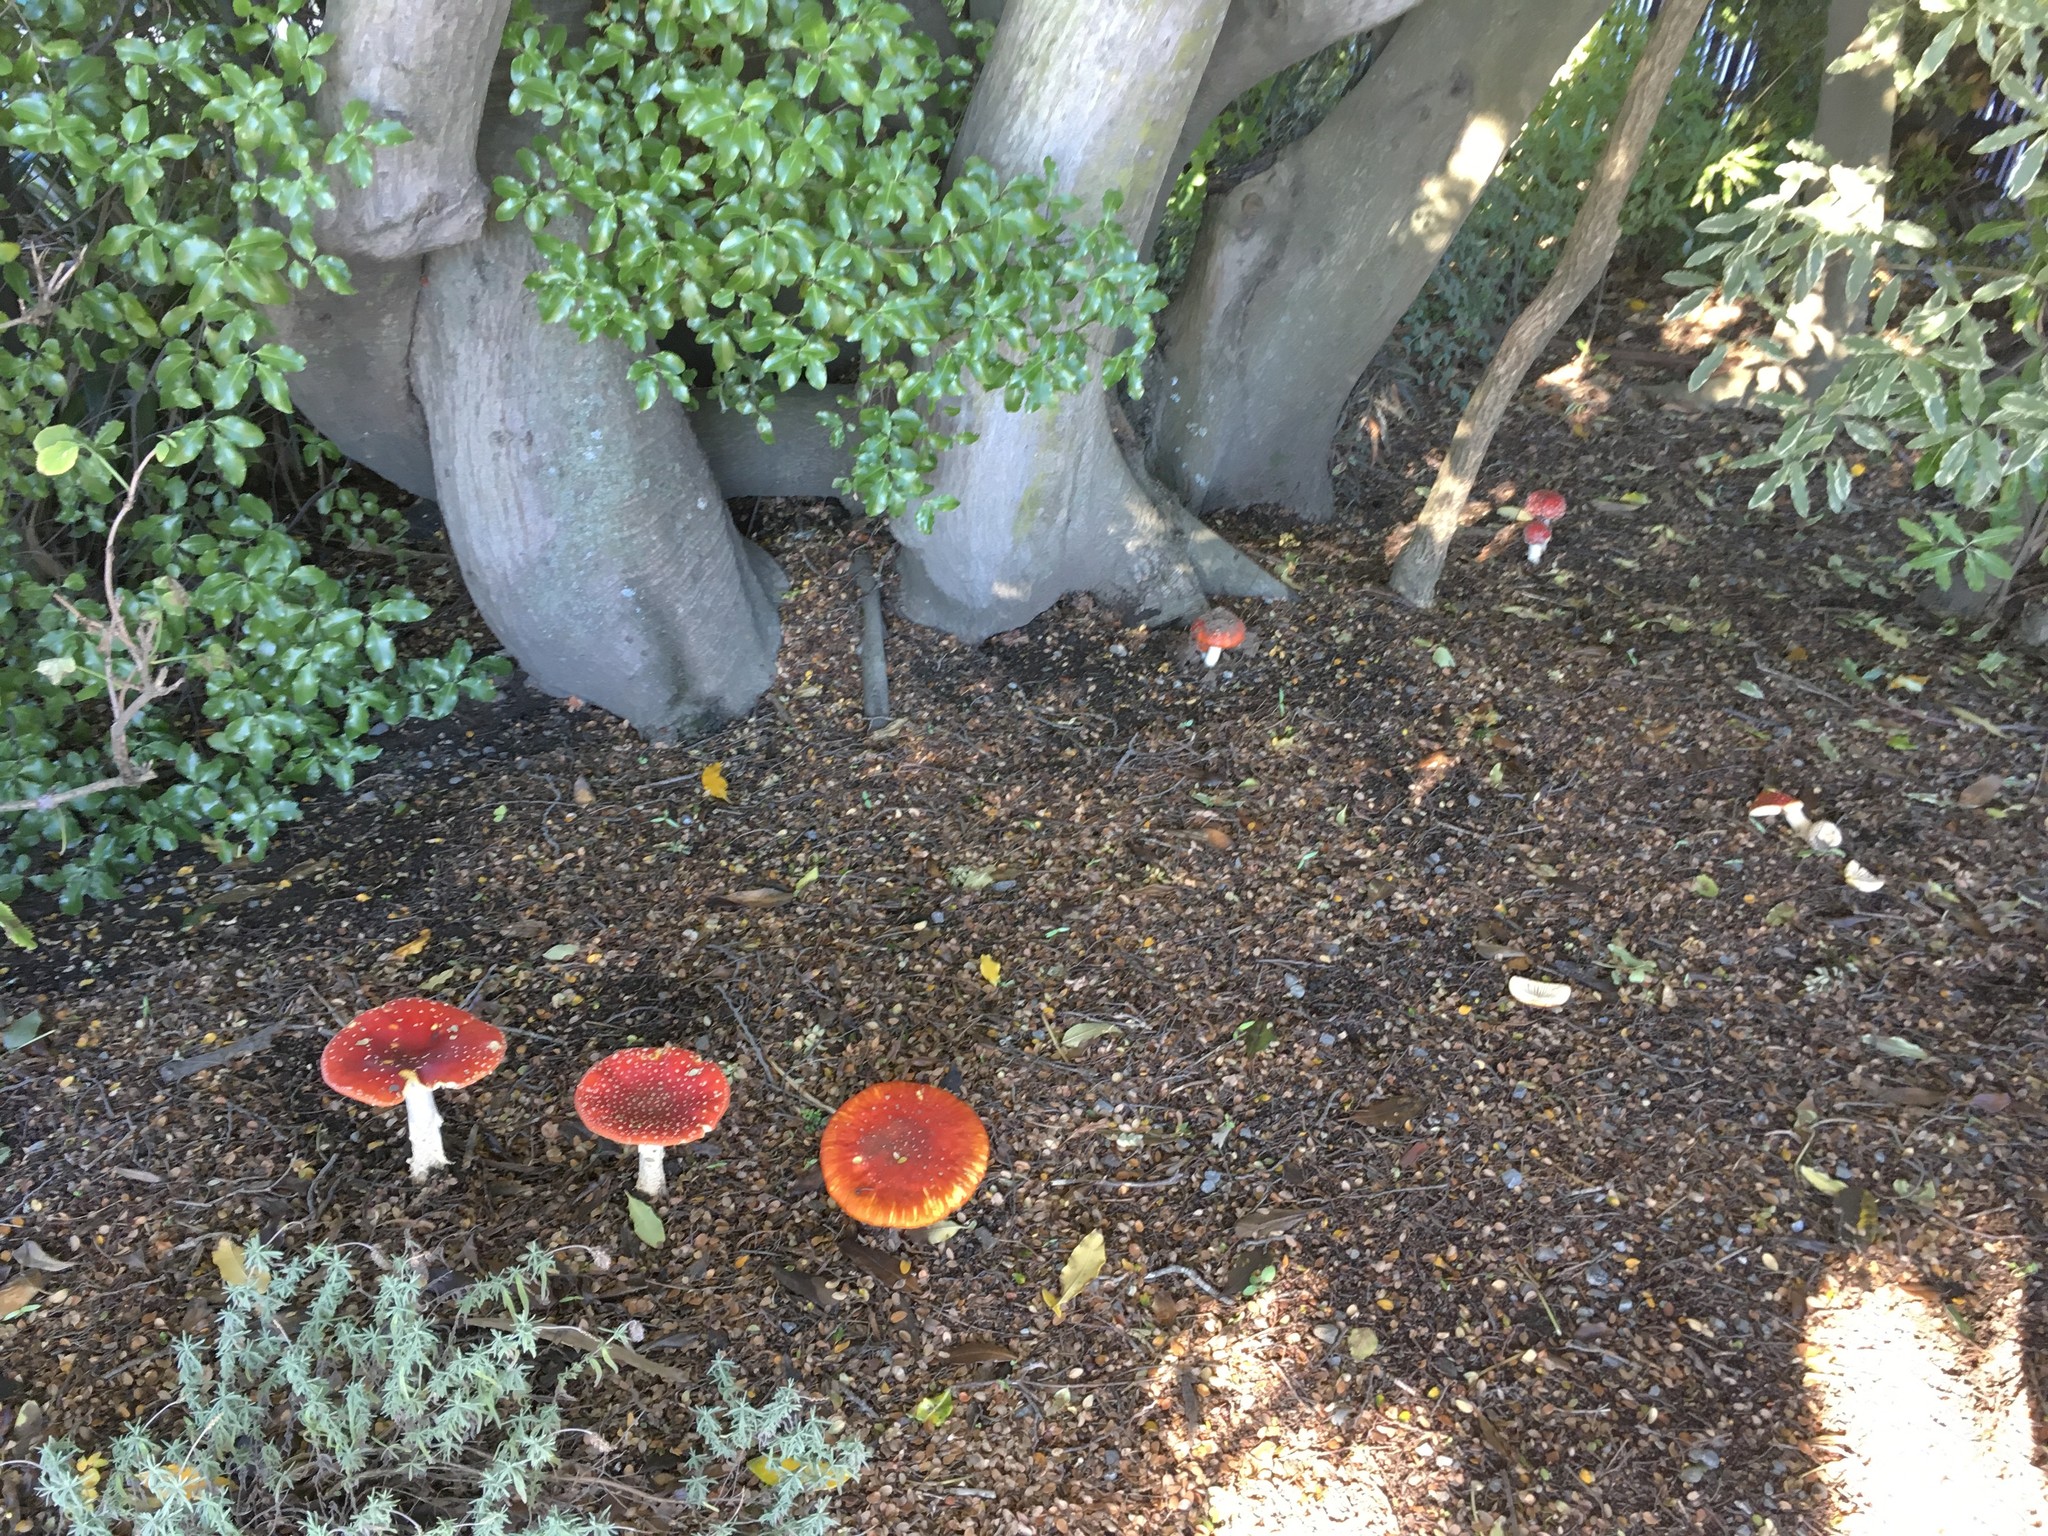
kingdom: Fungi
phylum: Basidiomycota
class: Agaricomycetes
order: Agaricales
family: Amanitaceae
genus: Amanita
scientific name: Amanita muscaria
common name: Fly agaric
